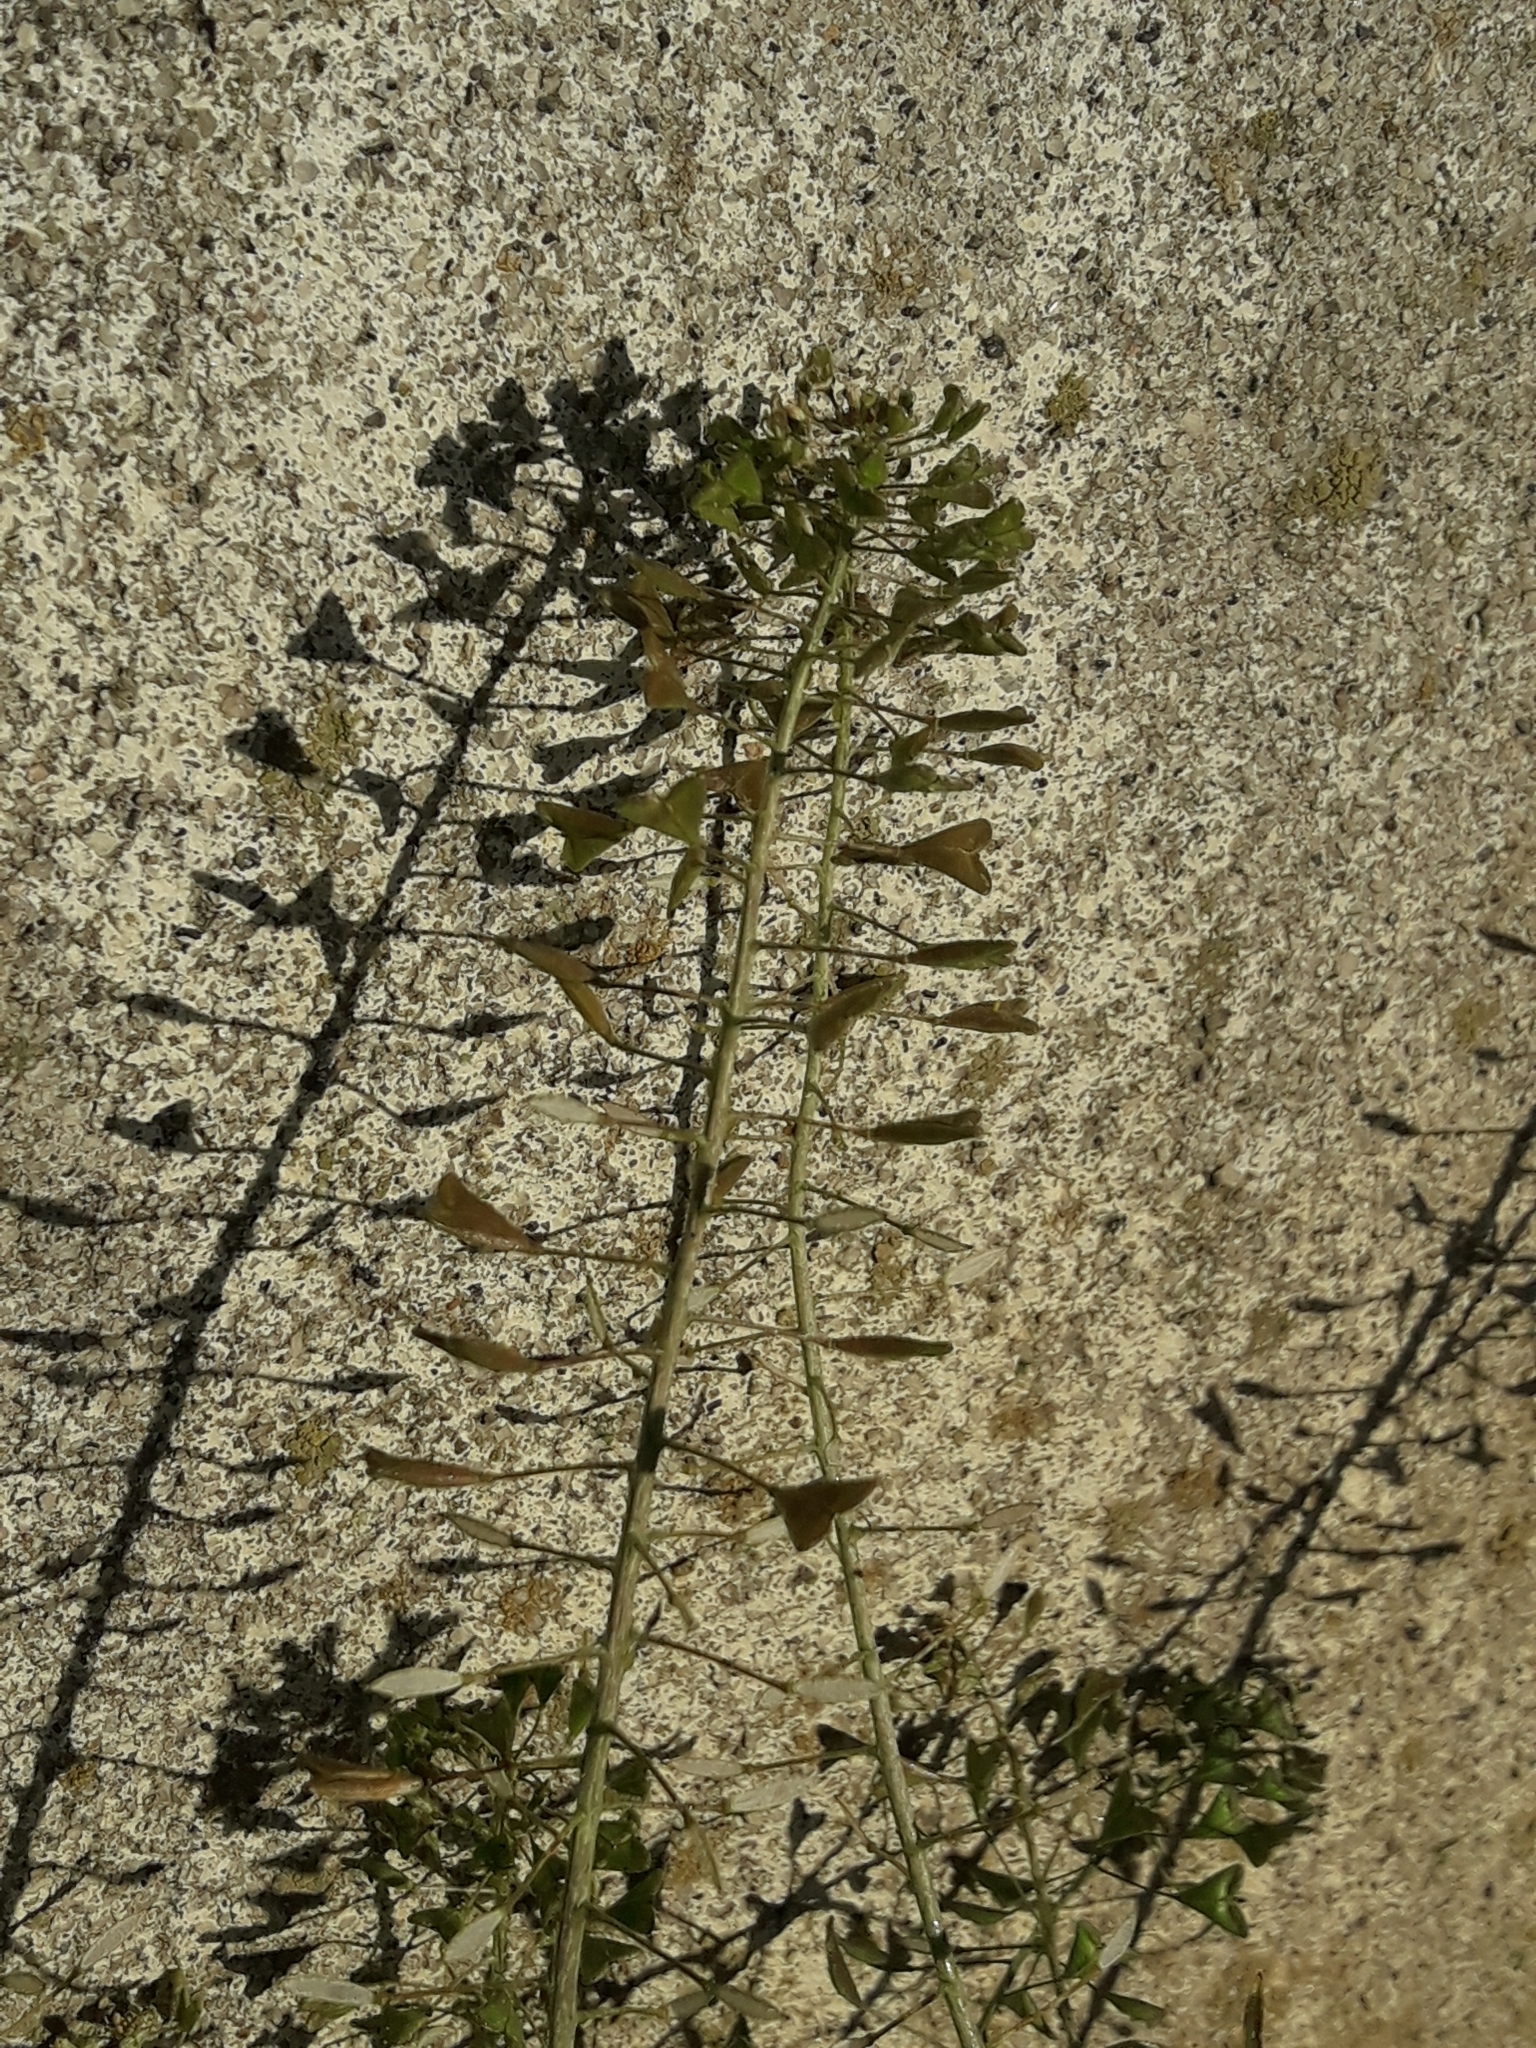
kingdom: Plantae
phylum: Tracheophyta
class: Magnoliopsida
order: Brassicales
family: Brassicaceae
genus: Capsella
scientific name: Capsella bursa-pastoris
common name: Shepherd's purse
